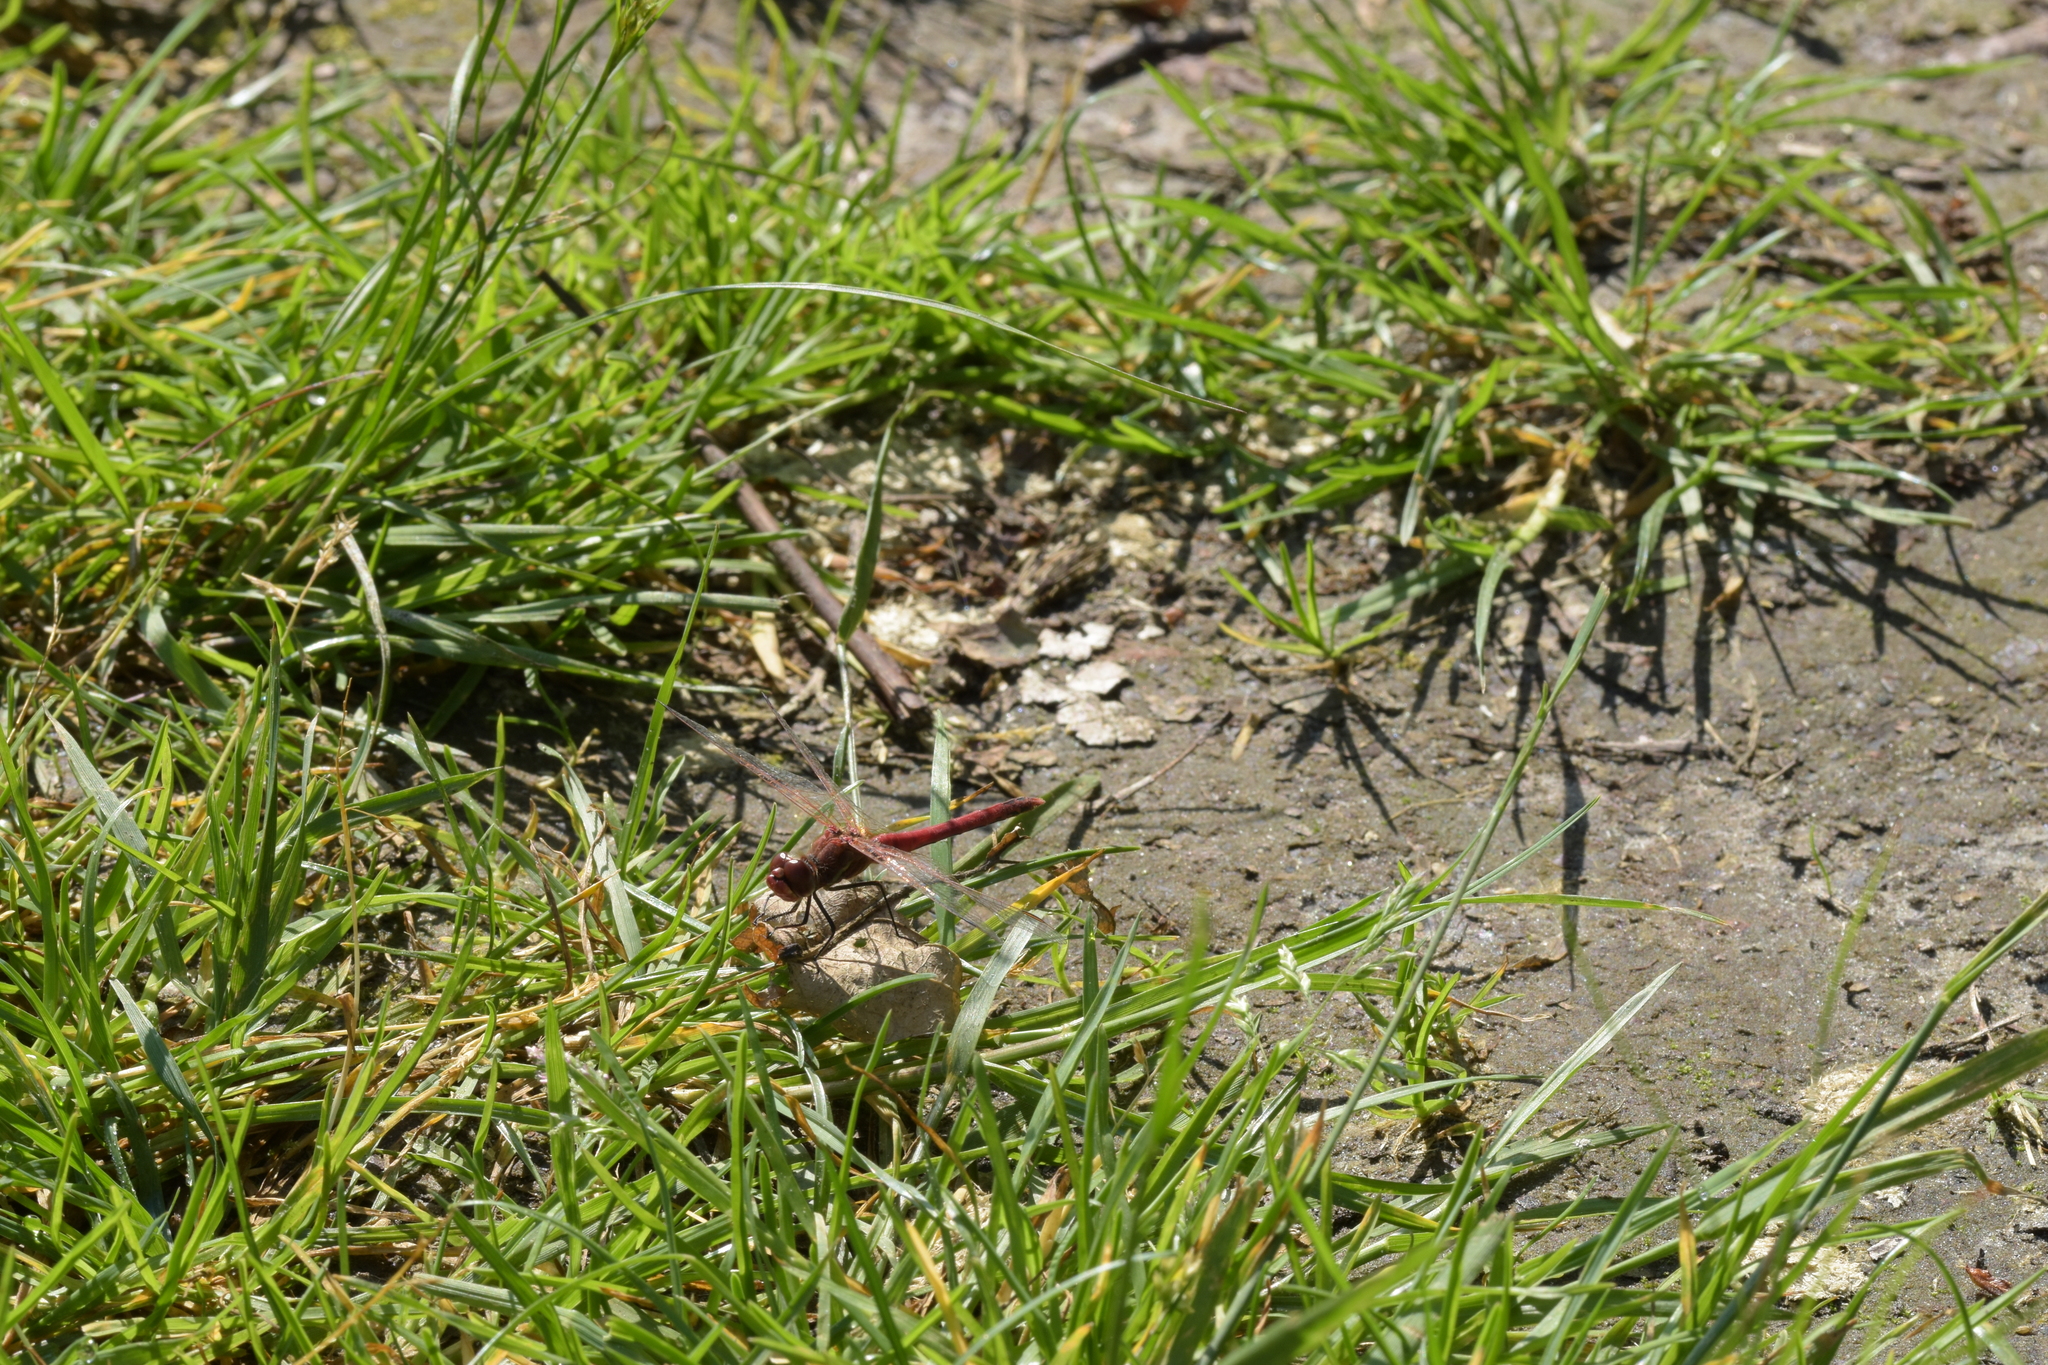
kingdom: Animalia
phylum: Arthropoda
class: Insecta
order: Odonata
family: Libellulidae
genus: Sympetrum
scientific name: Sympetrum fonscolombii
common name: Red-veined darter
